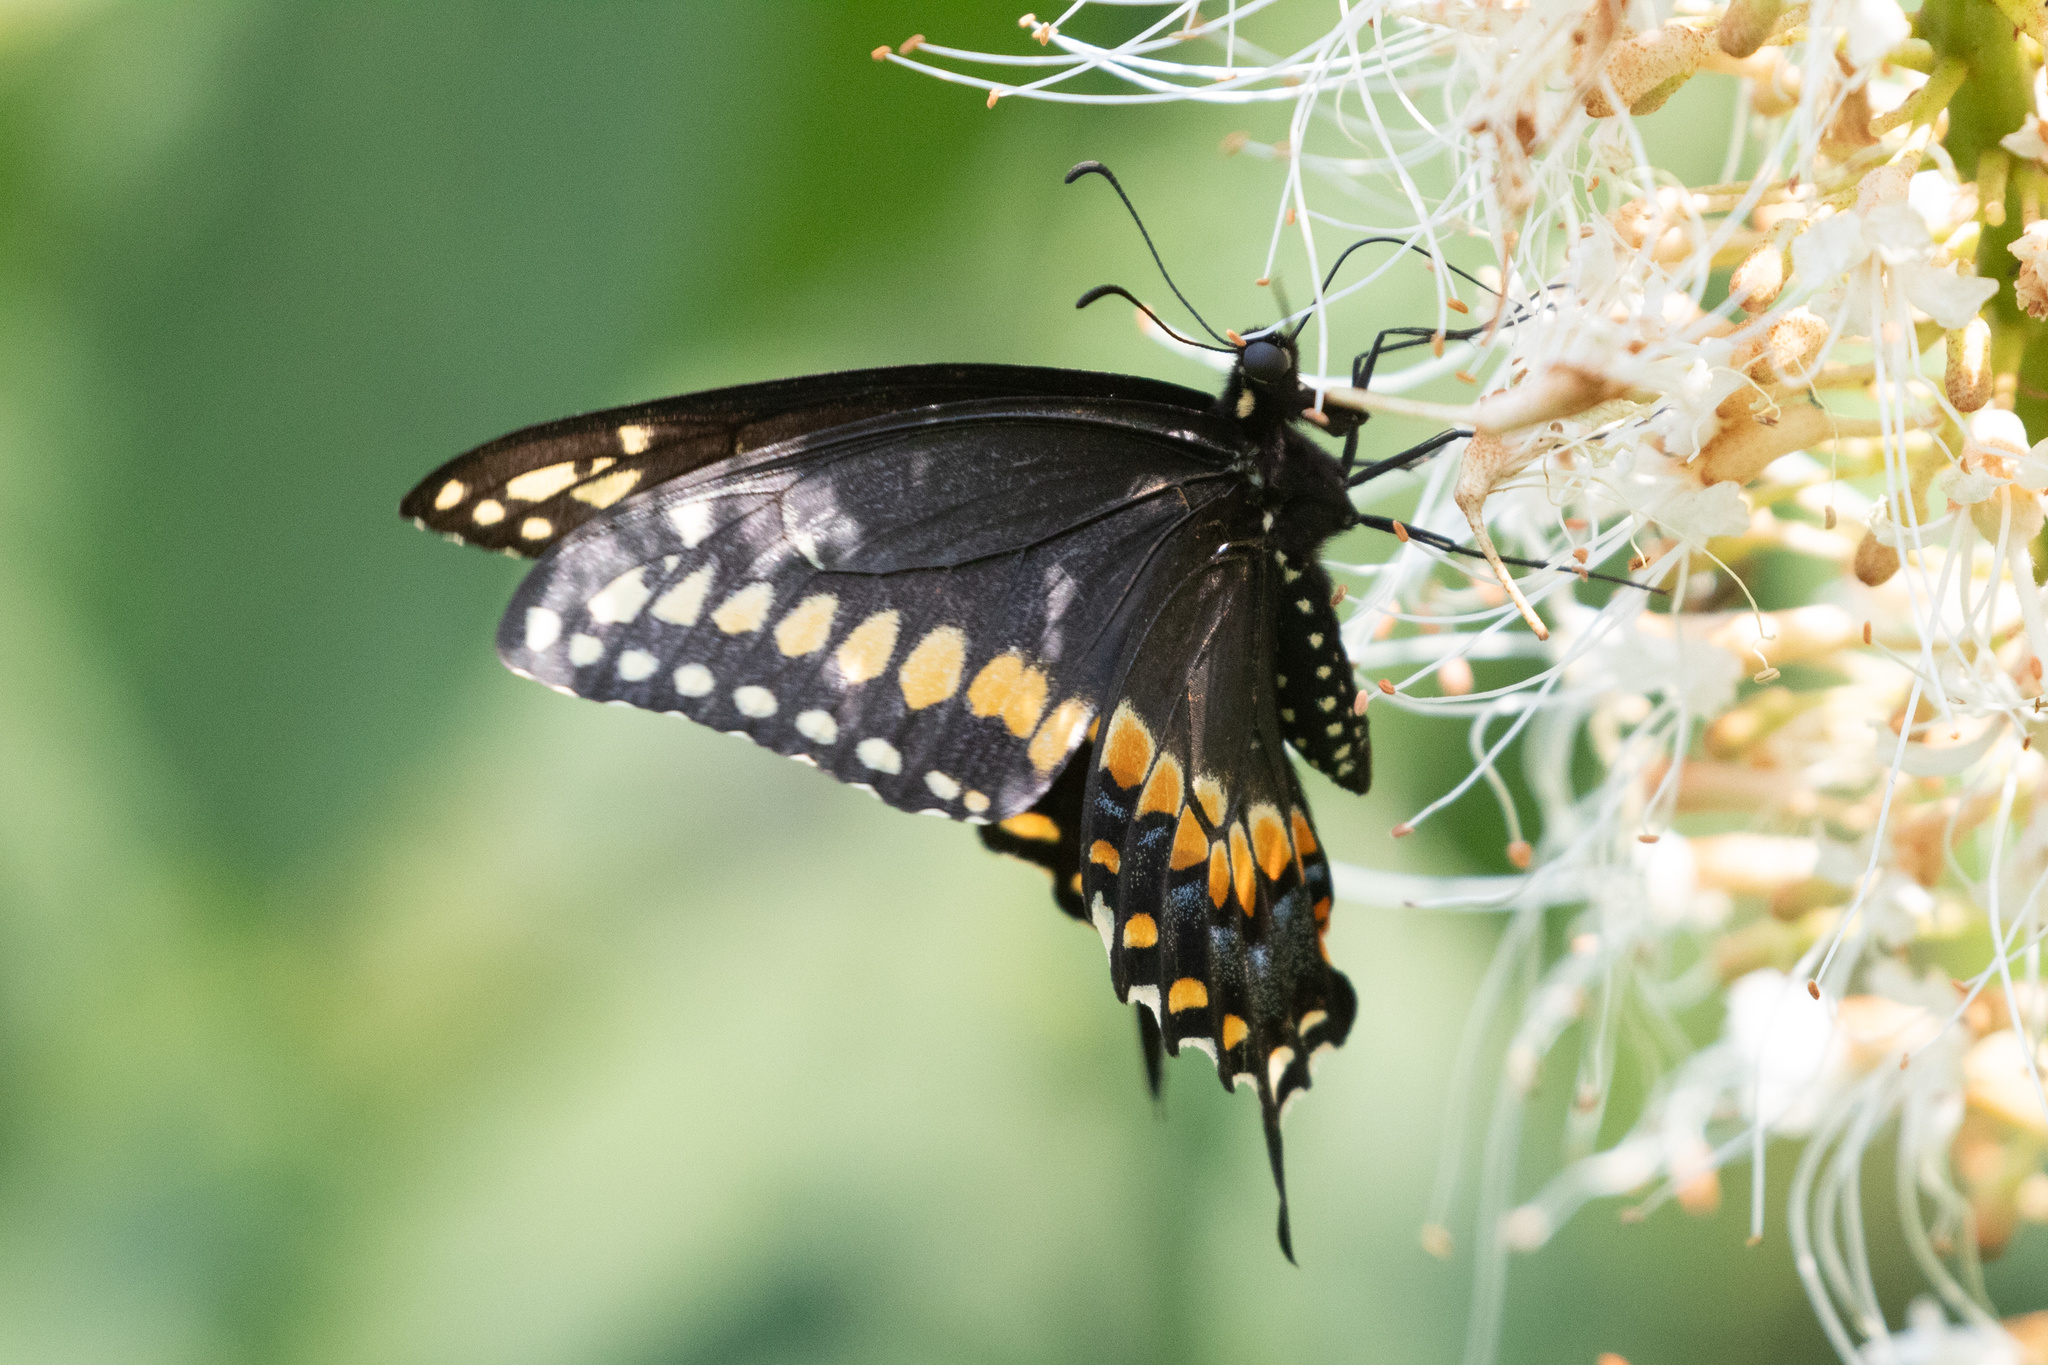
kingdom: Animalia
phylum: Arthropoda
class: Insecta
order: Lepidoptera
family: Papilionidae
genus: Papilio
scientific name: Papilio polyxenes
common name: Black swallowtail
